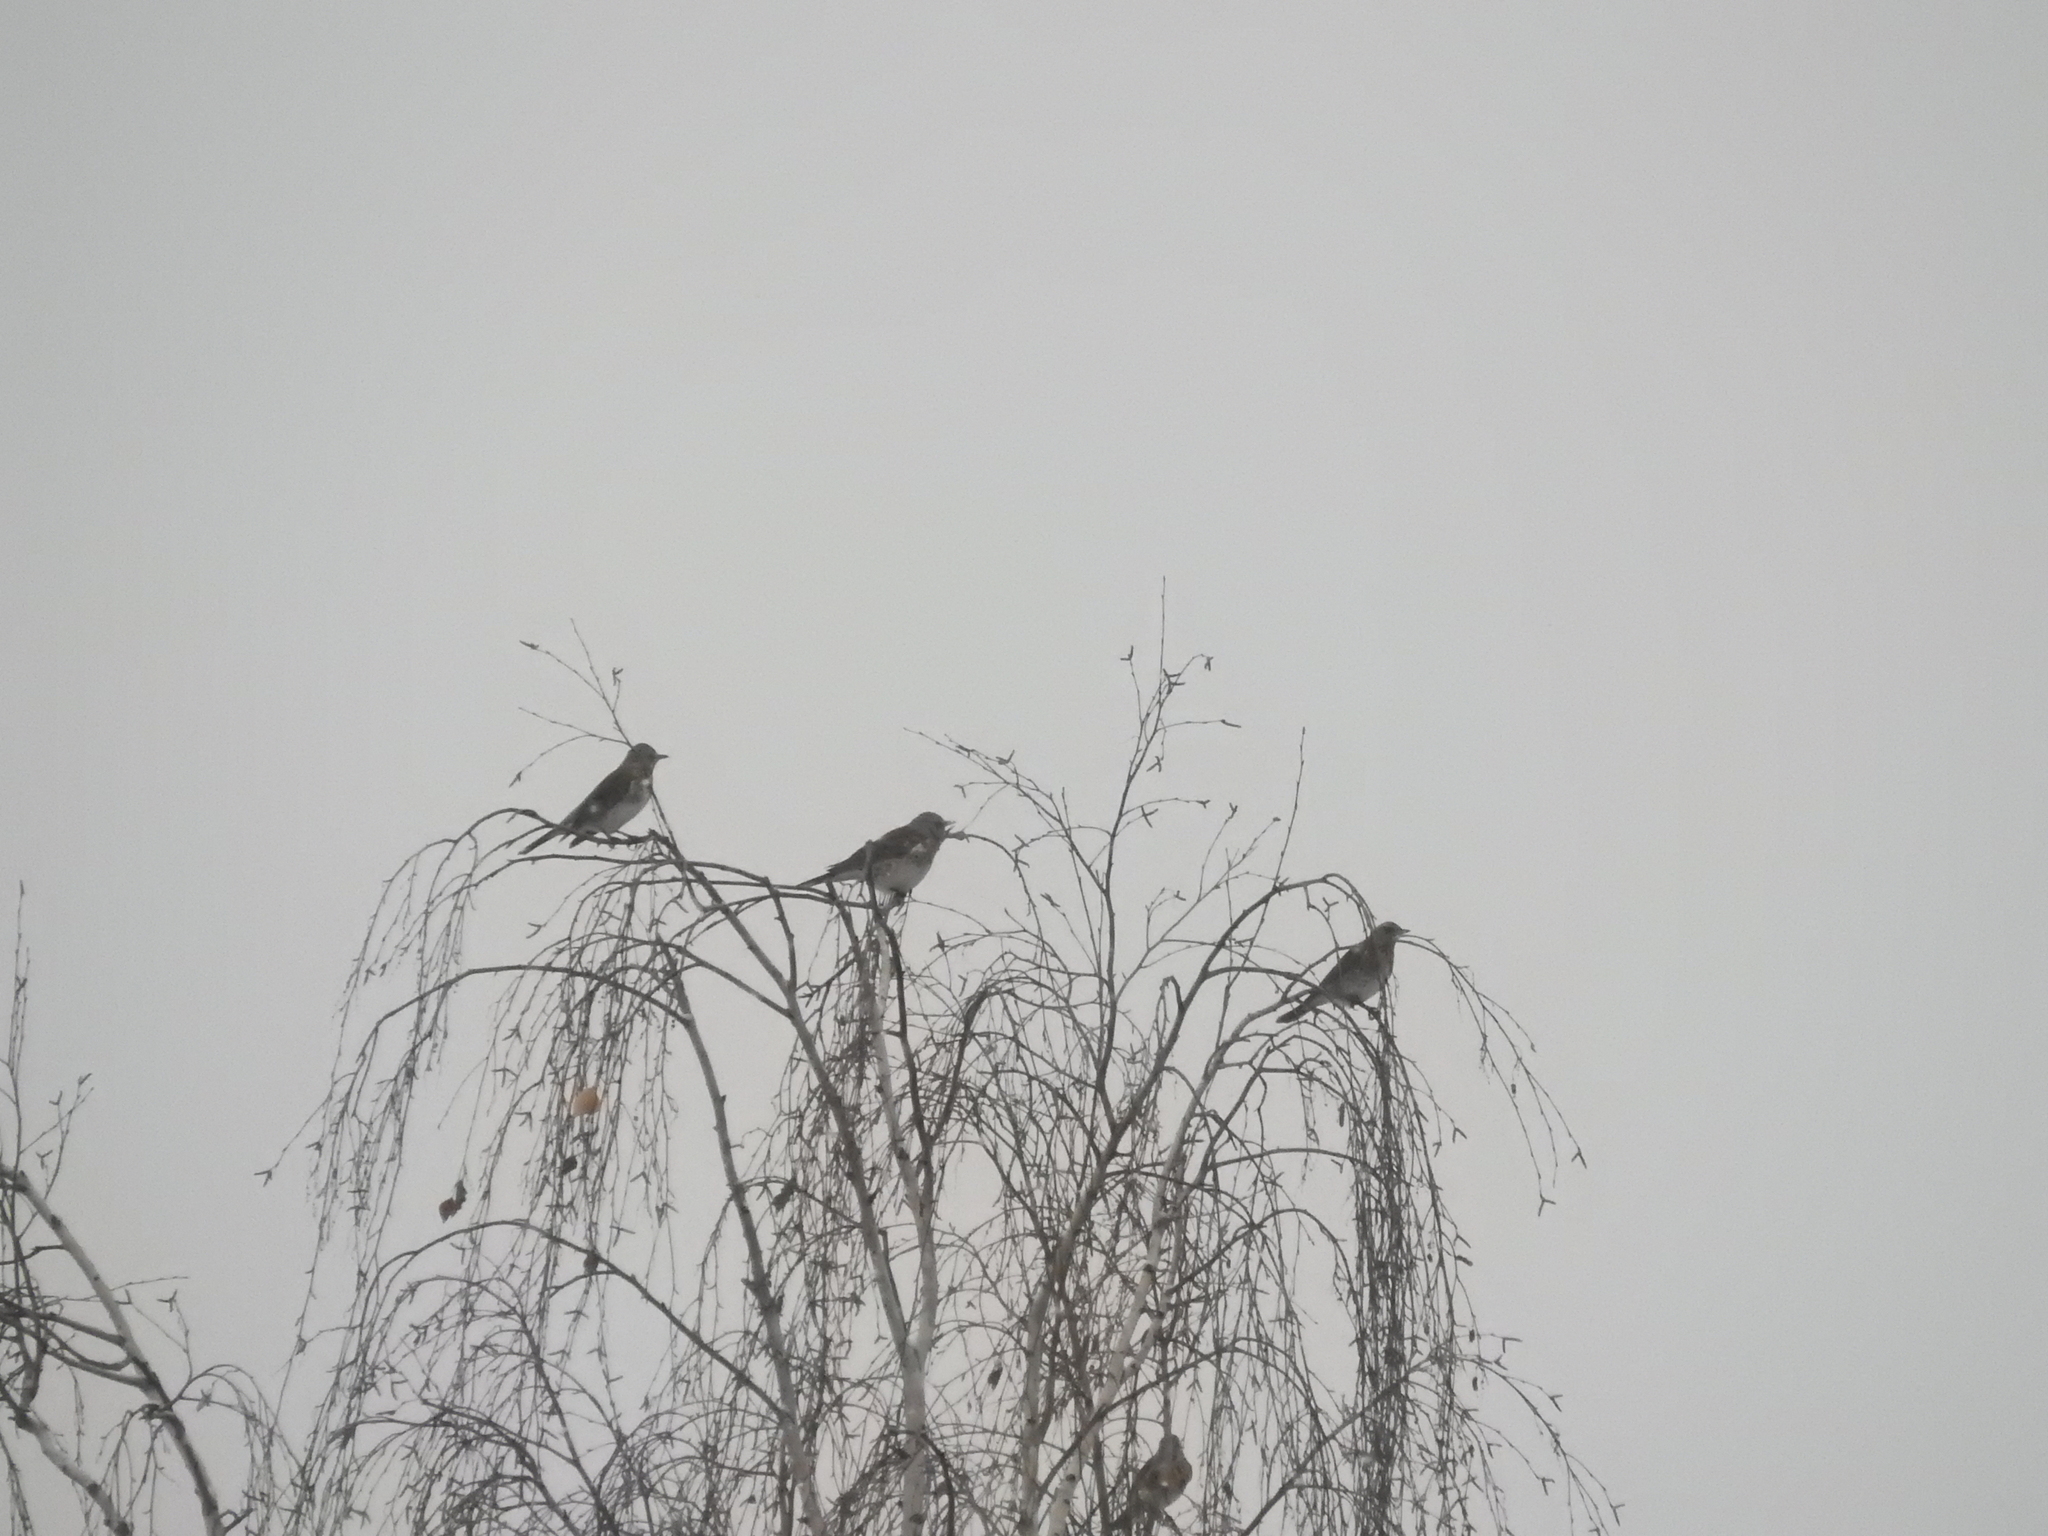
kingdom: Animalia
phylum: Chordata
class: Aves
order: Passeriformes
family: Turdidae
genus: Turdus
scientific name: Turdus pilaris
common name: Fieldfare
